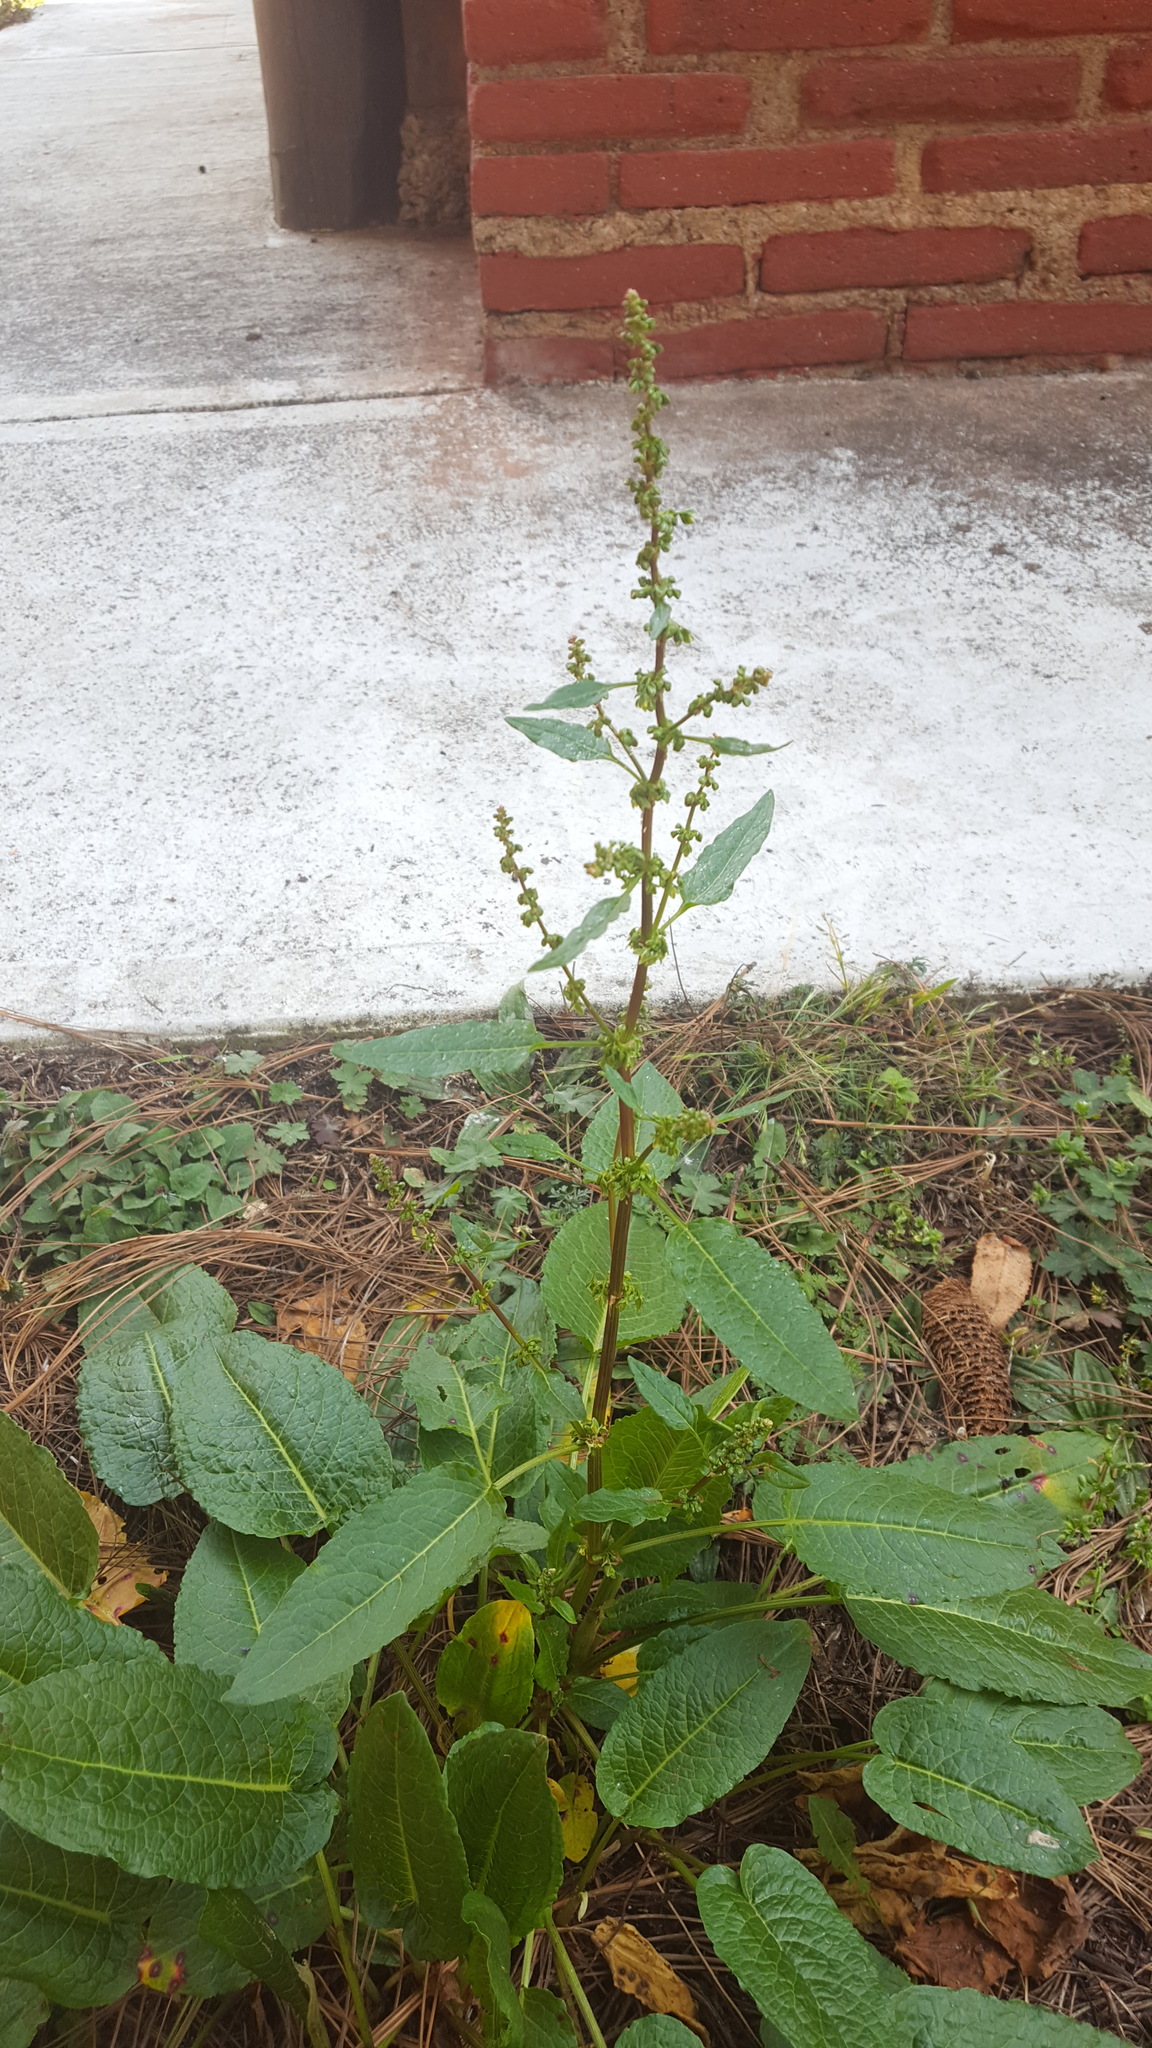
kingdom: Plantae
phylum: Tracheophyta
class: Magnoliopsida
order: Caryophyllales
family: Polygonaceae
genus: Rumex
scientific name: Rumex obtusifolius
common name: Bitter dock
